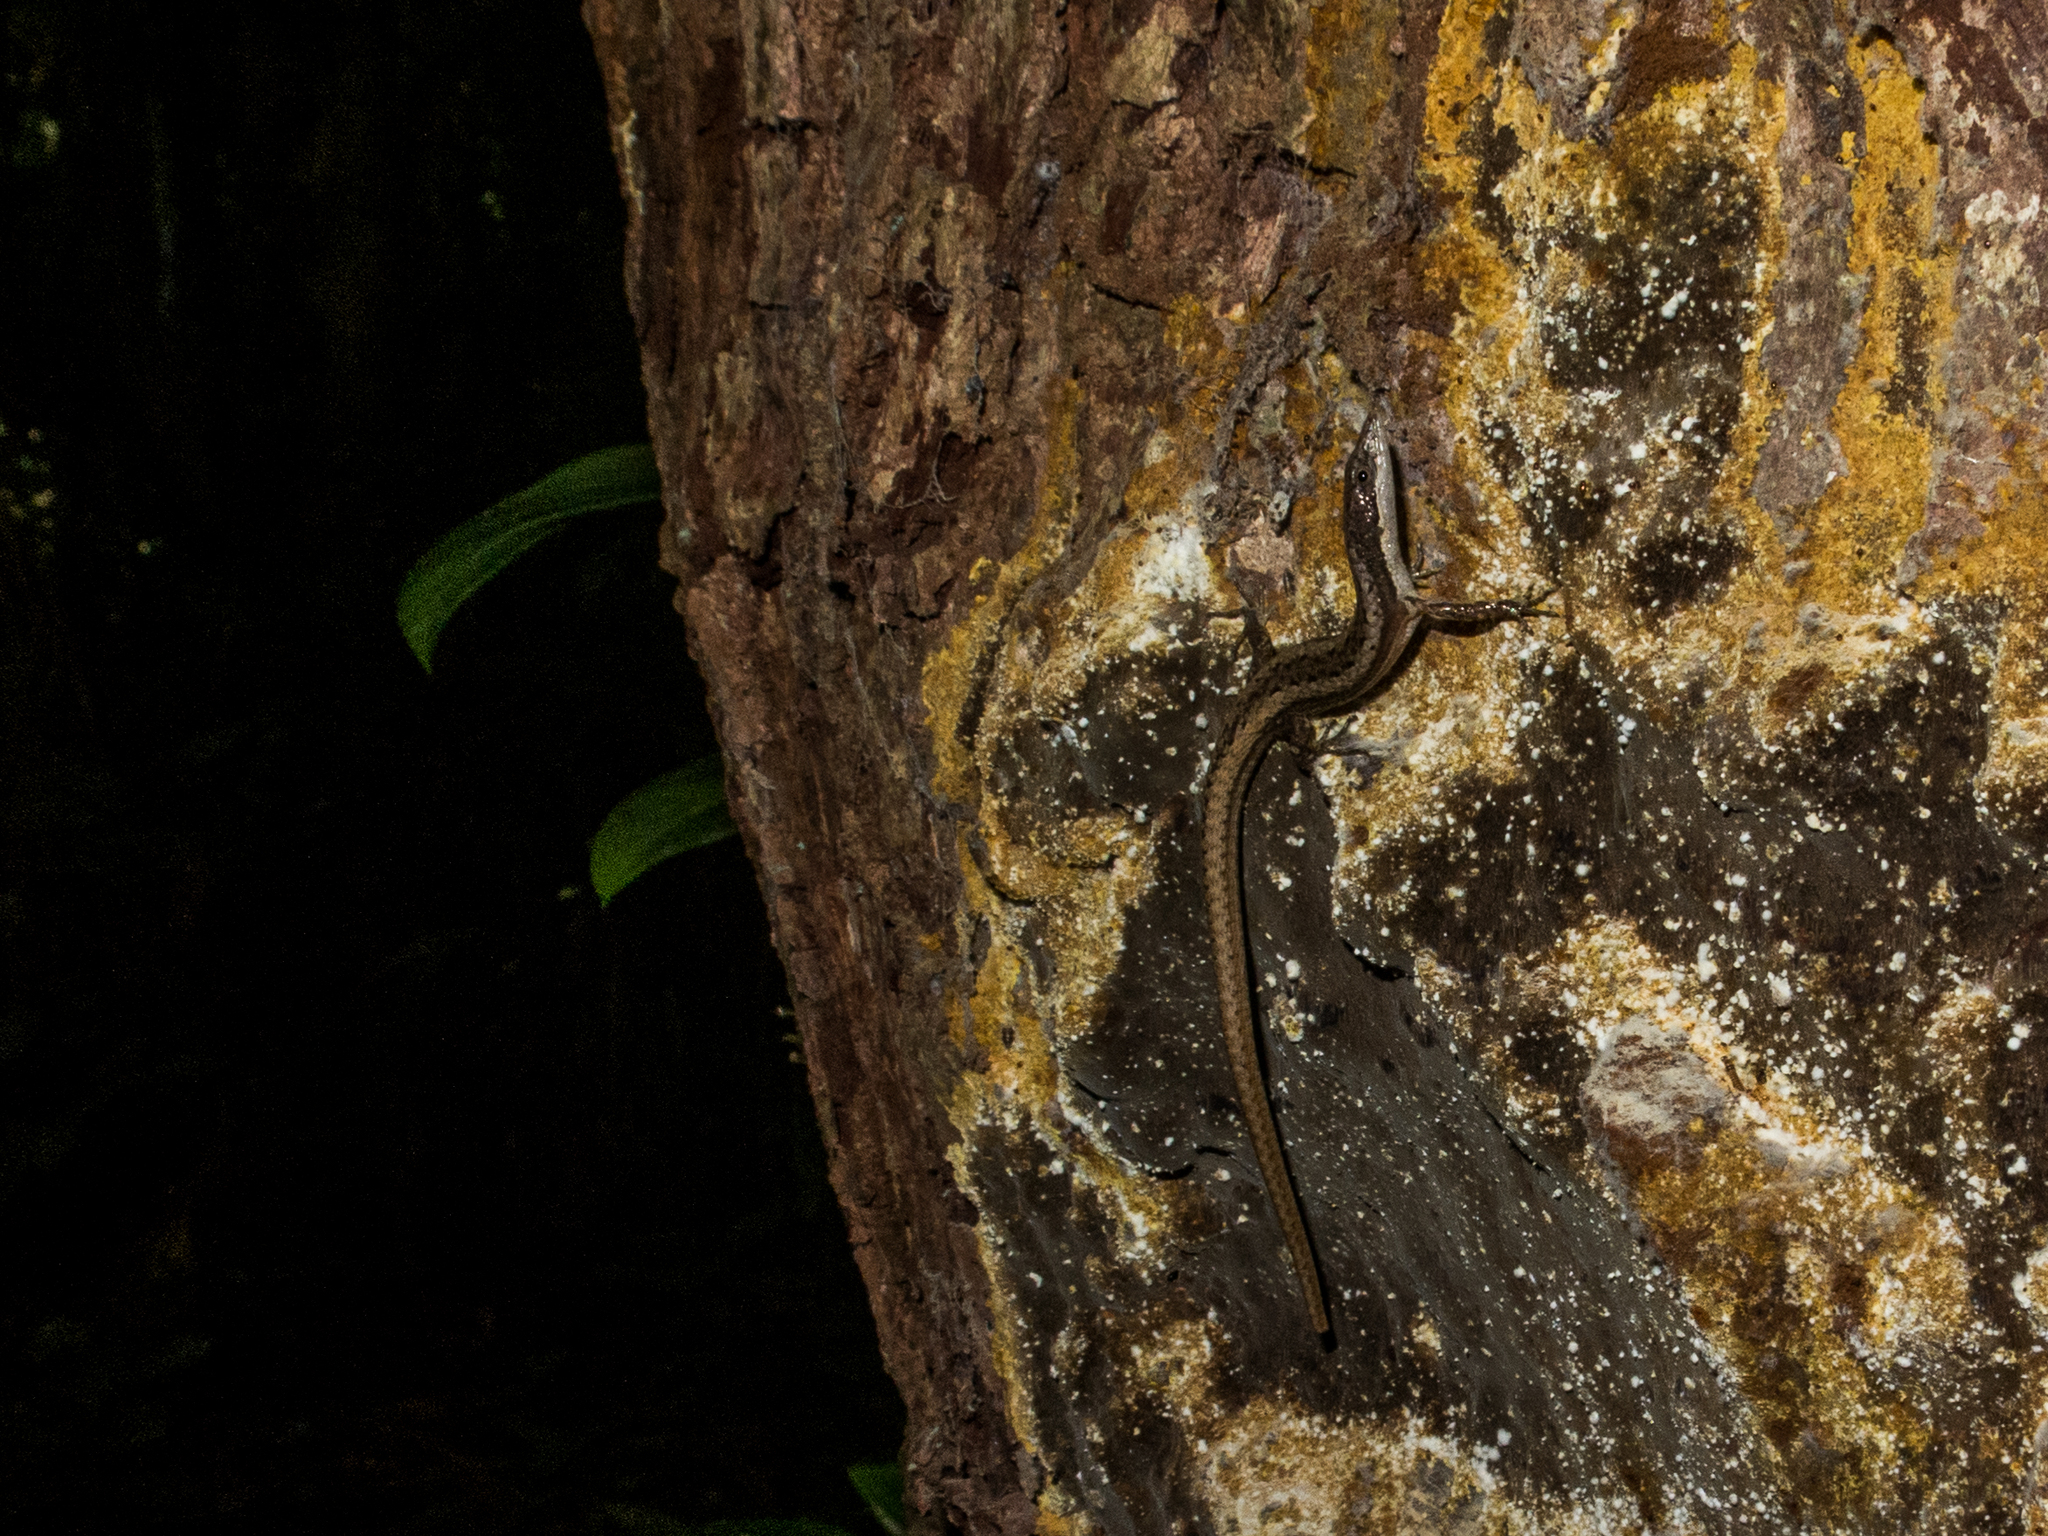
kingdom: Animalia
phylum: Chordata
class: Squamata
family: Gymnophthalmidae
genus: Placosoma
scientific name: Placosoma cordylinum
